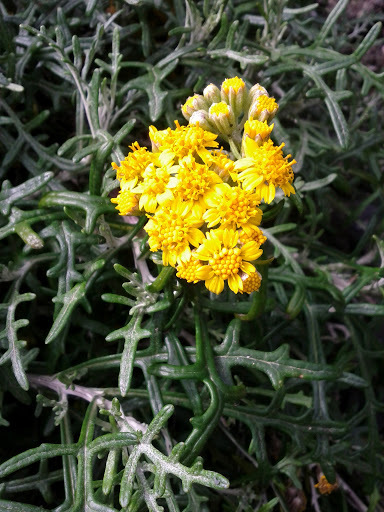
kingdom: Plantae
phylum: Tracheophyta
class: Magnoliopsida
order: Asterales
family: Asteraceae
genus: Eriophyllum
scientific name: Eriophyllum staechadifolium
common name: Lizardtail
